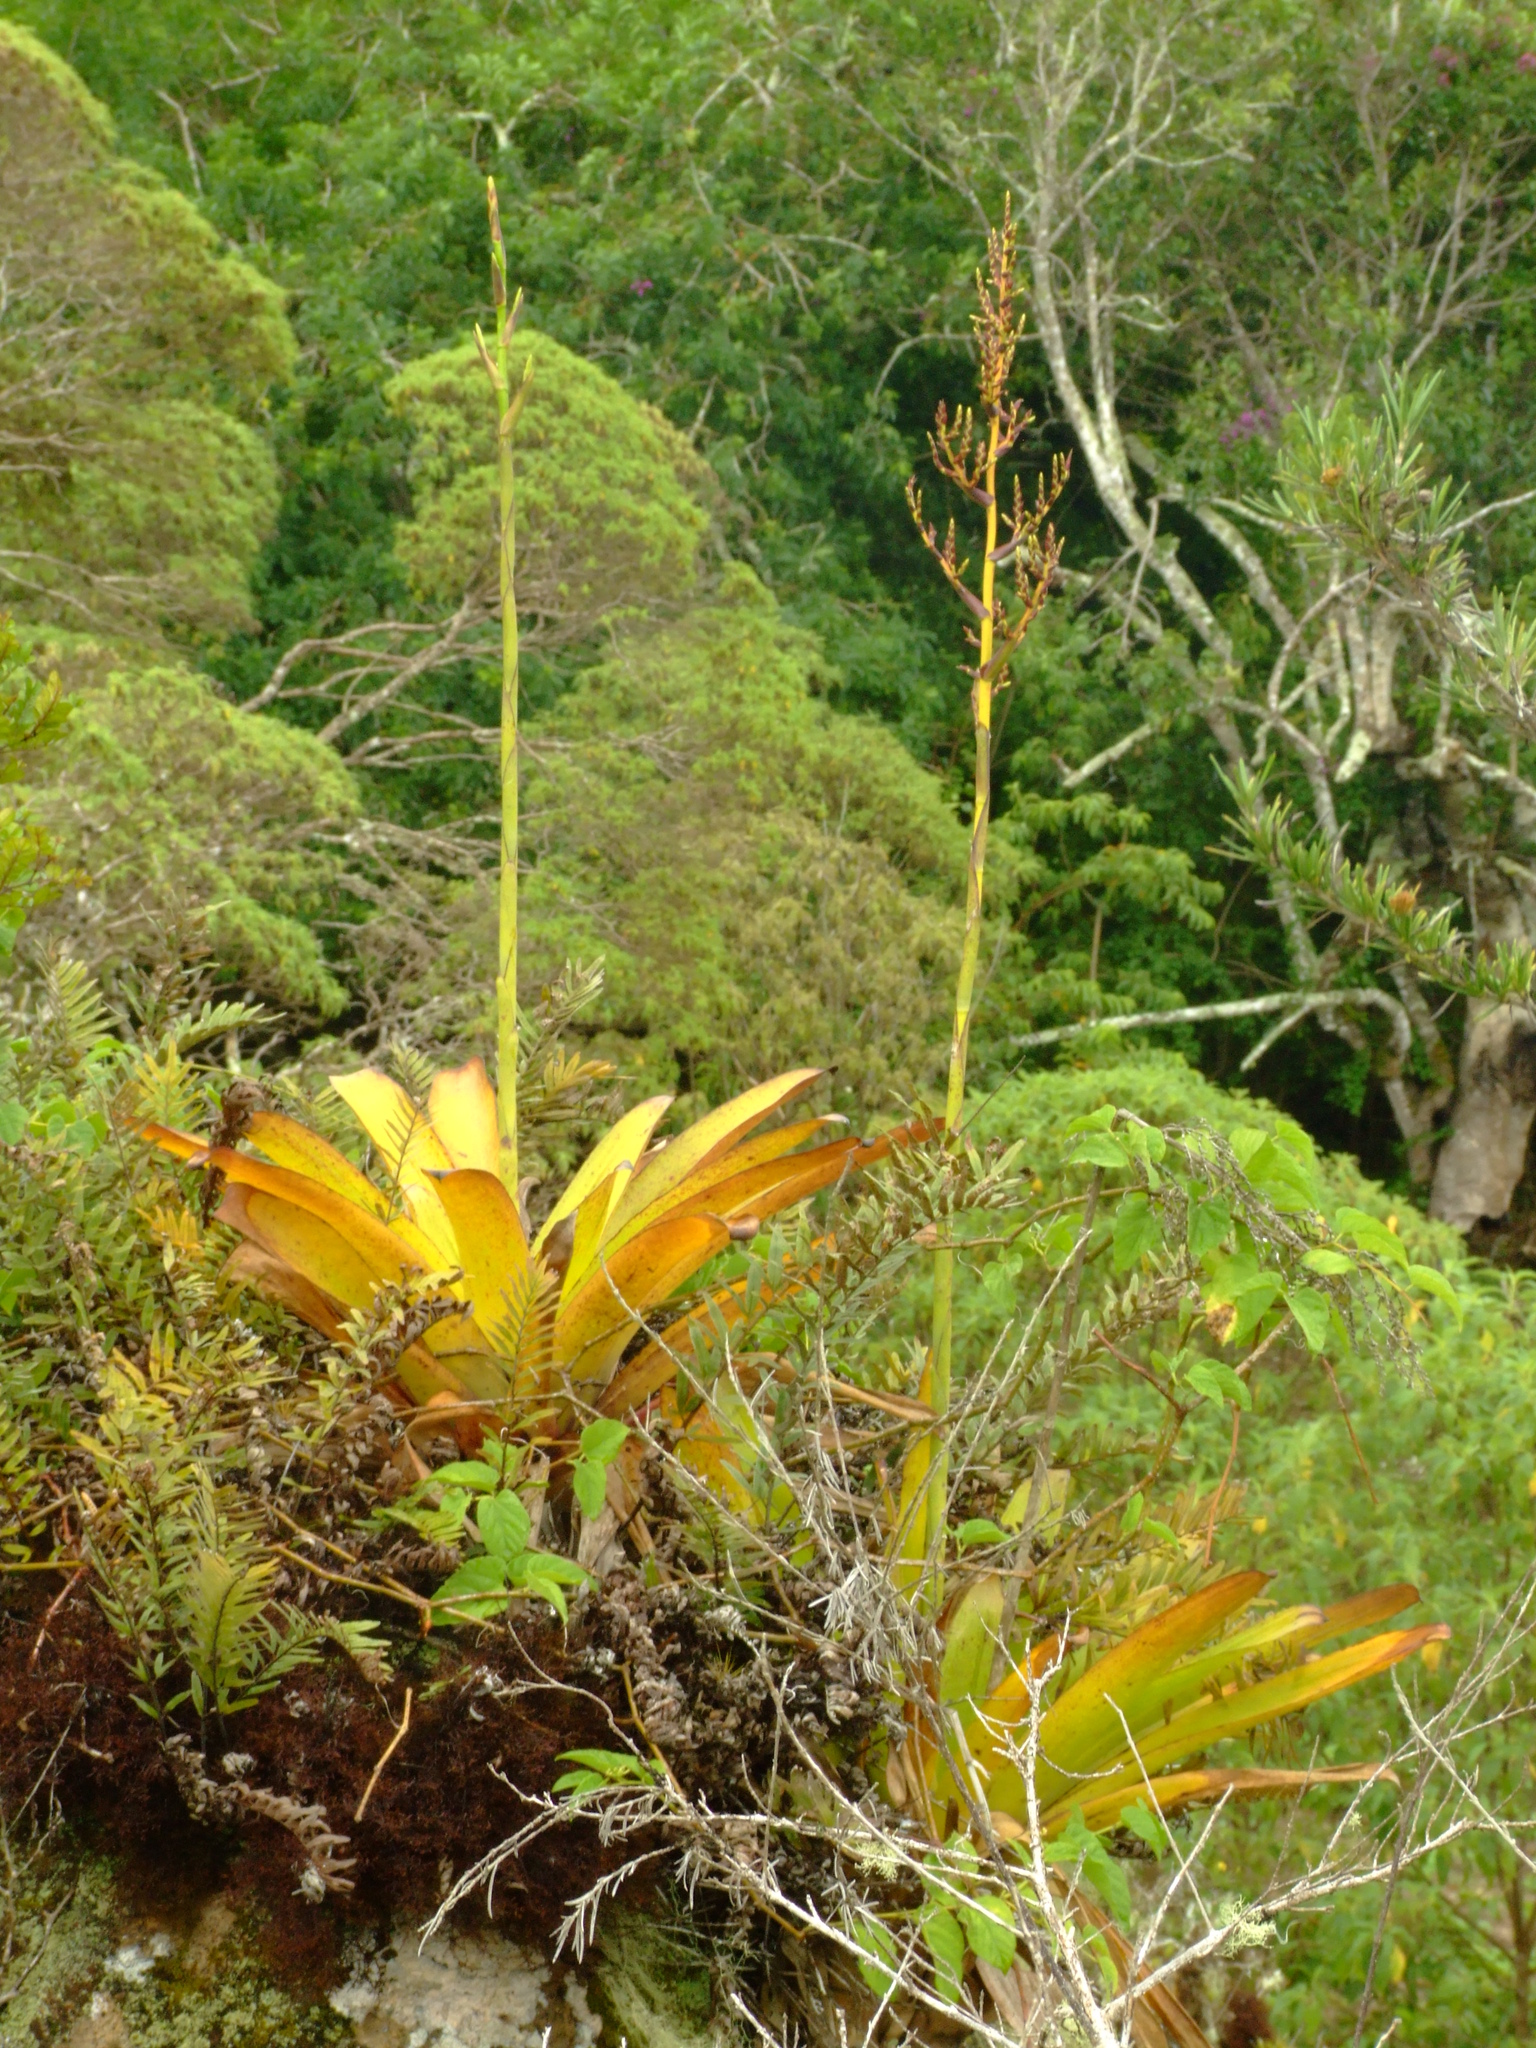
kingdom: Plantae
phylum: Tracheophyta
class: Liliopsida
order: Poales
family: Bromeliaceae
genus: Racinaea
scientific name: Racinaea insularis
